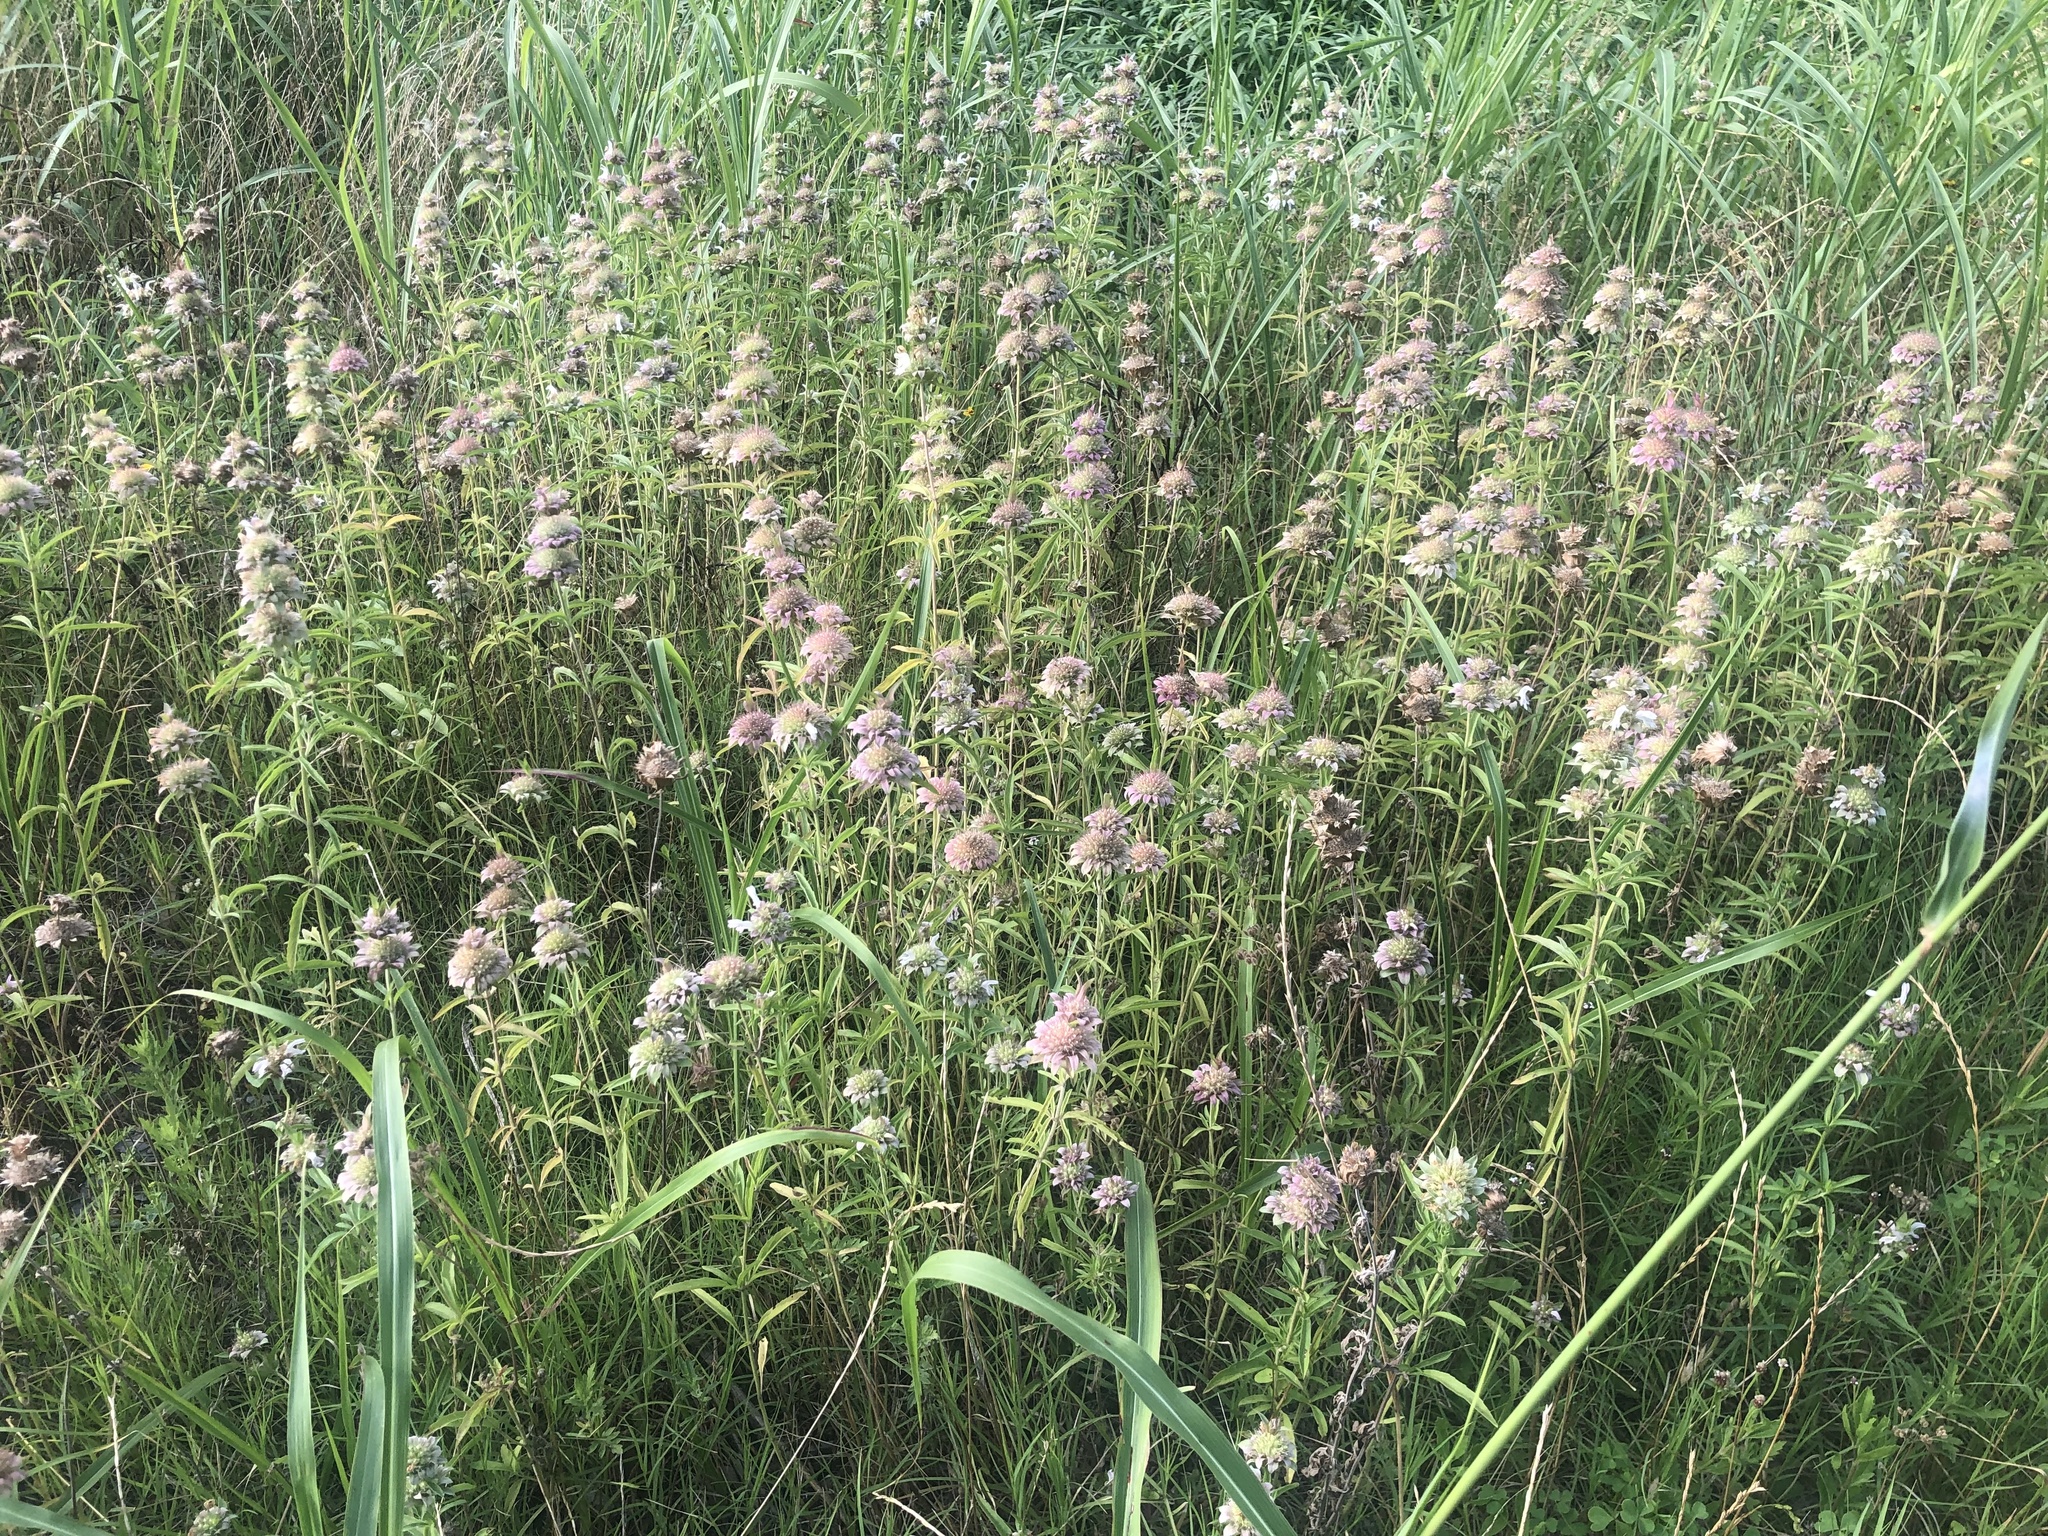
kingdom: Plantae
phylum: Tracheophyta
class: Magnoliopsida
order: Lamiales
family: Lamiaceae
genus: Monarda
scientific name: Monarda citriodora
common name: Lemon beebalm
